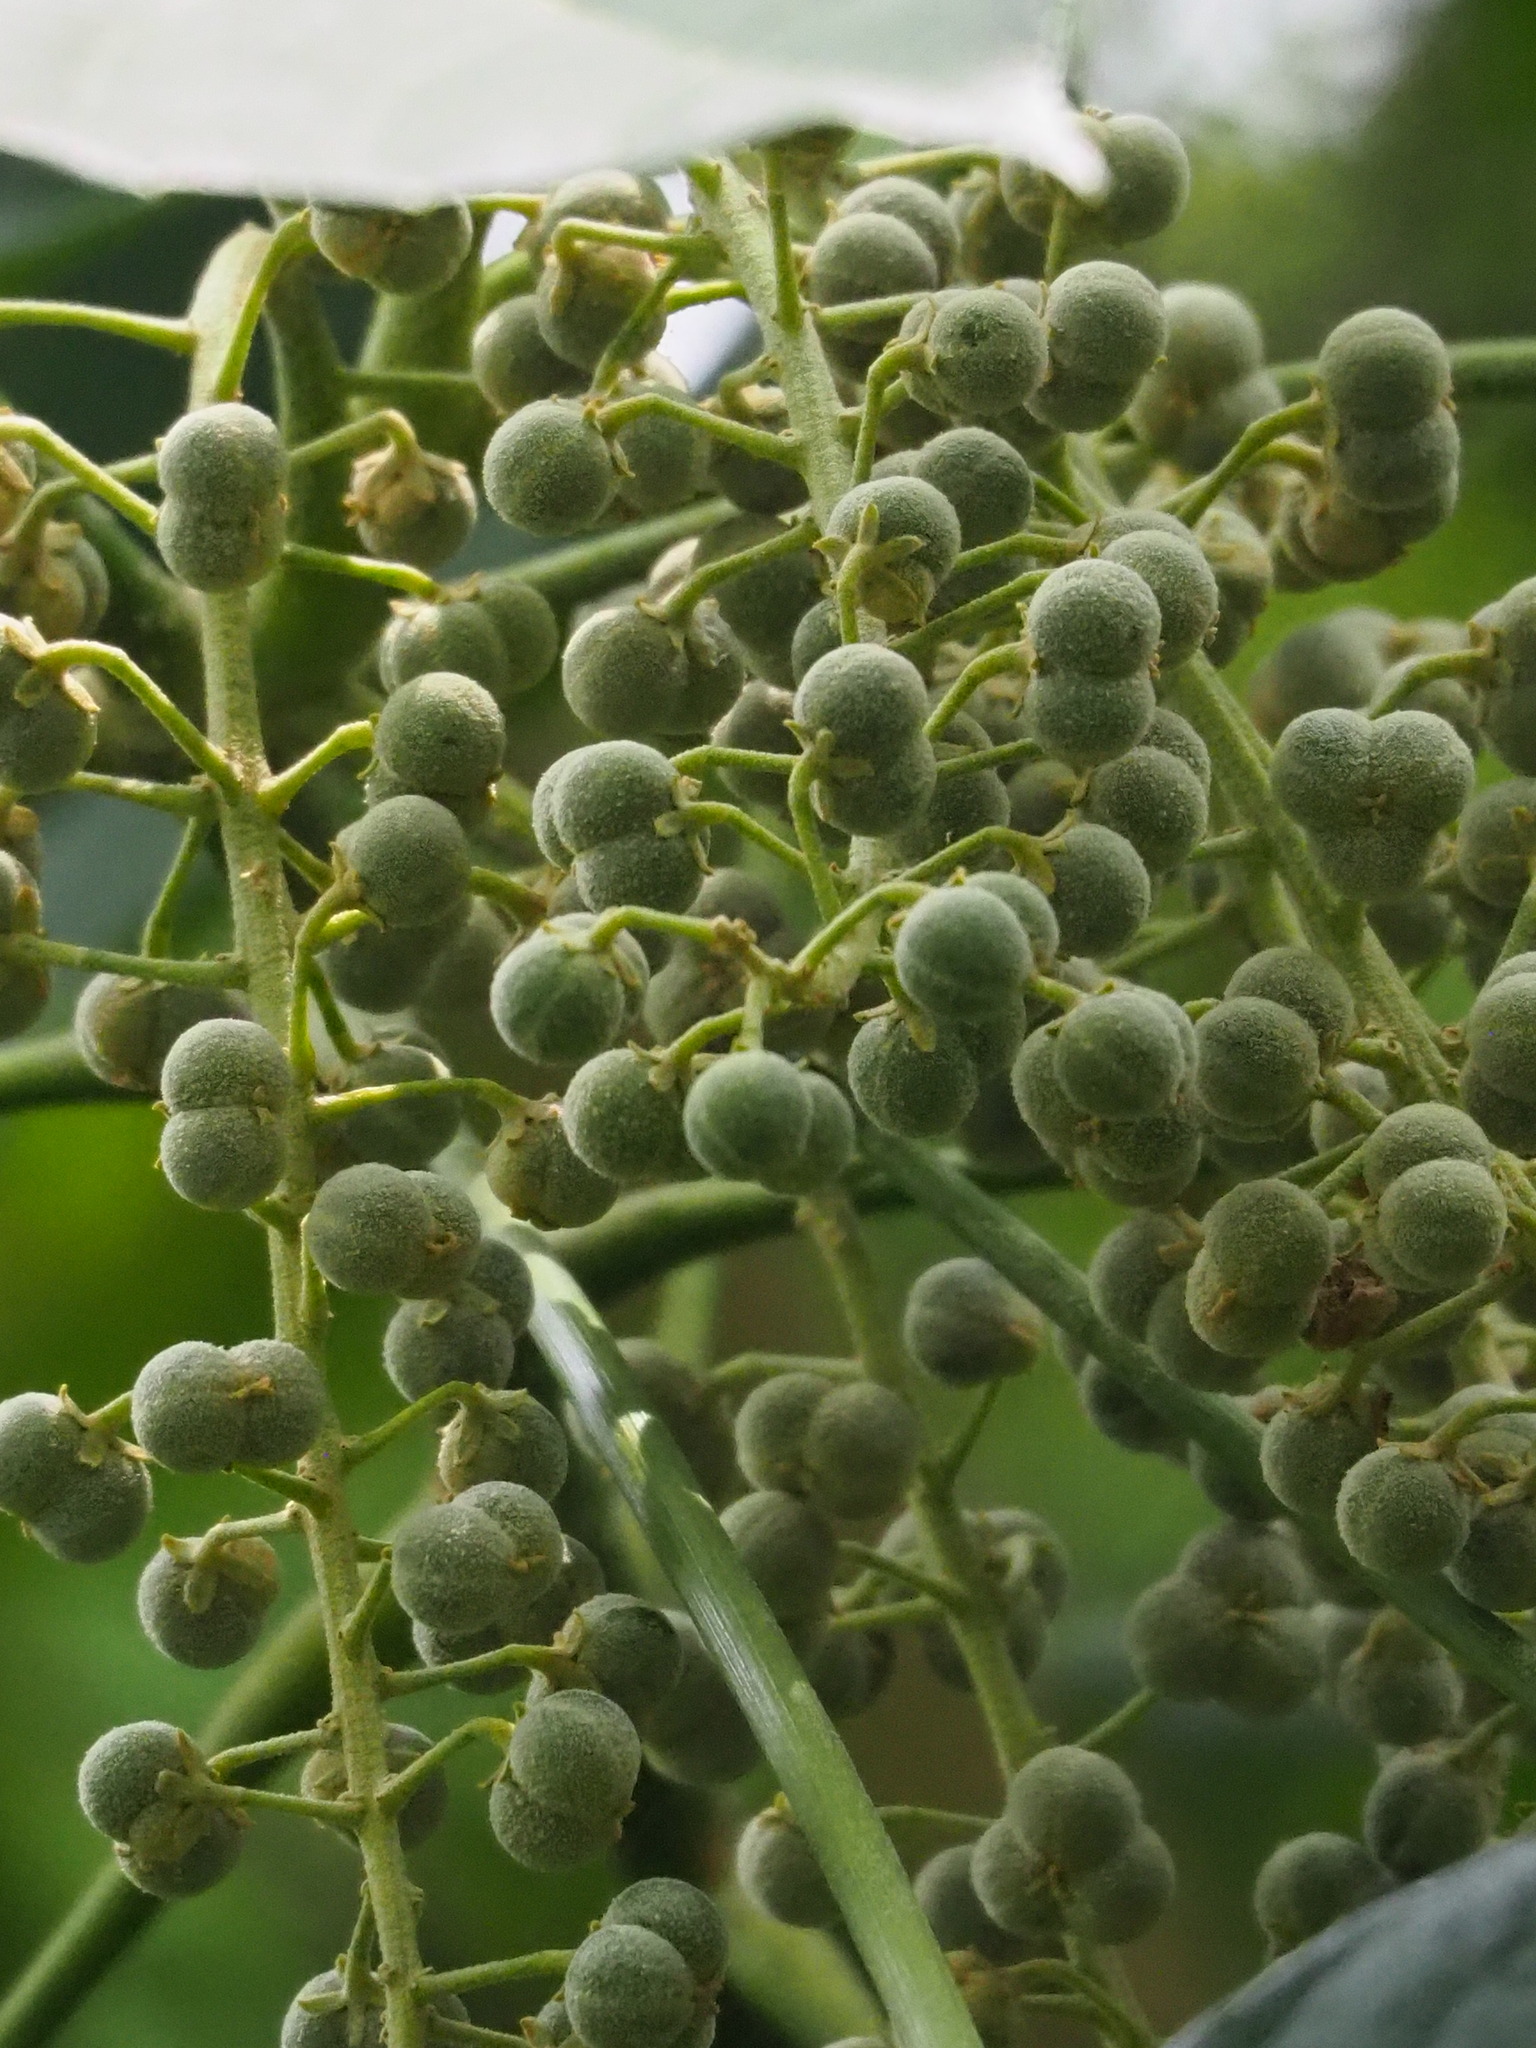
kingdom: Plantae
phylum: Tracheophyta
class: Magnoliopsida
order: Malpighiales
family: Euphorbiaceae
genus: Melanolepis
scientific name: Melanolepis multiglandulosa
